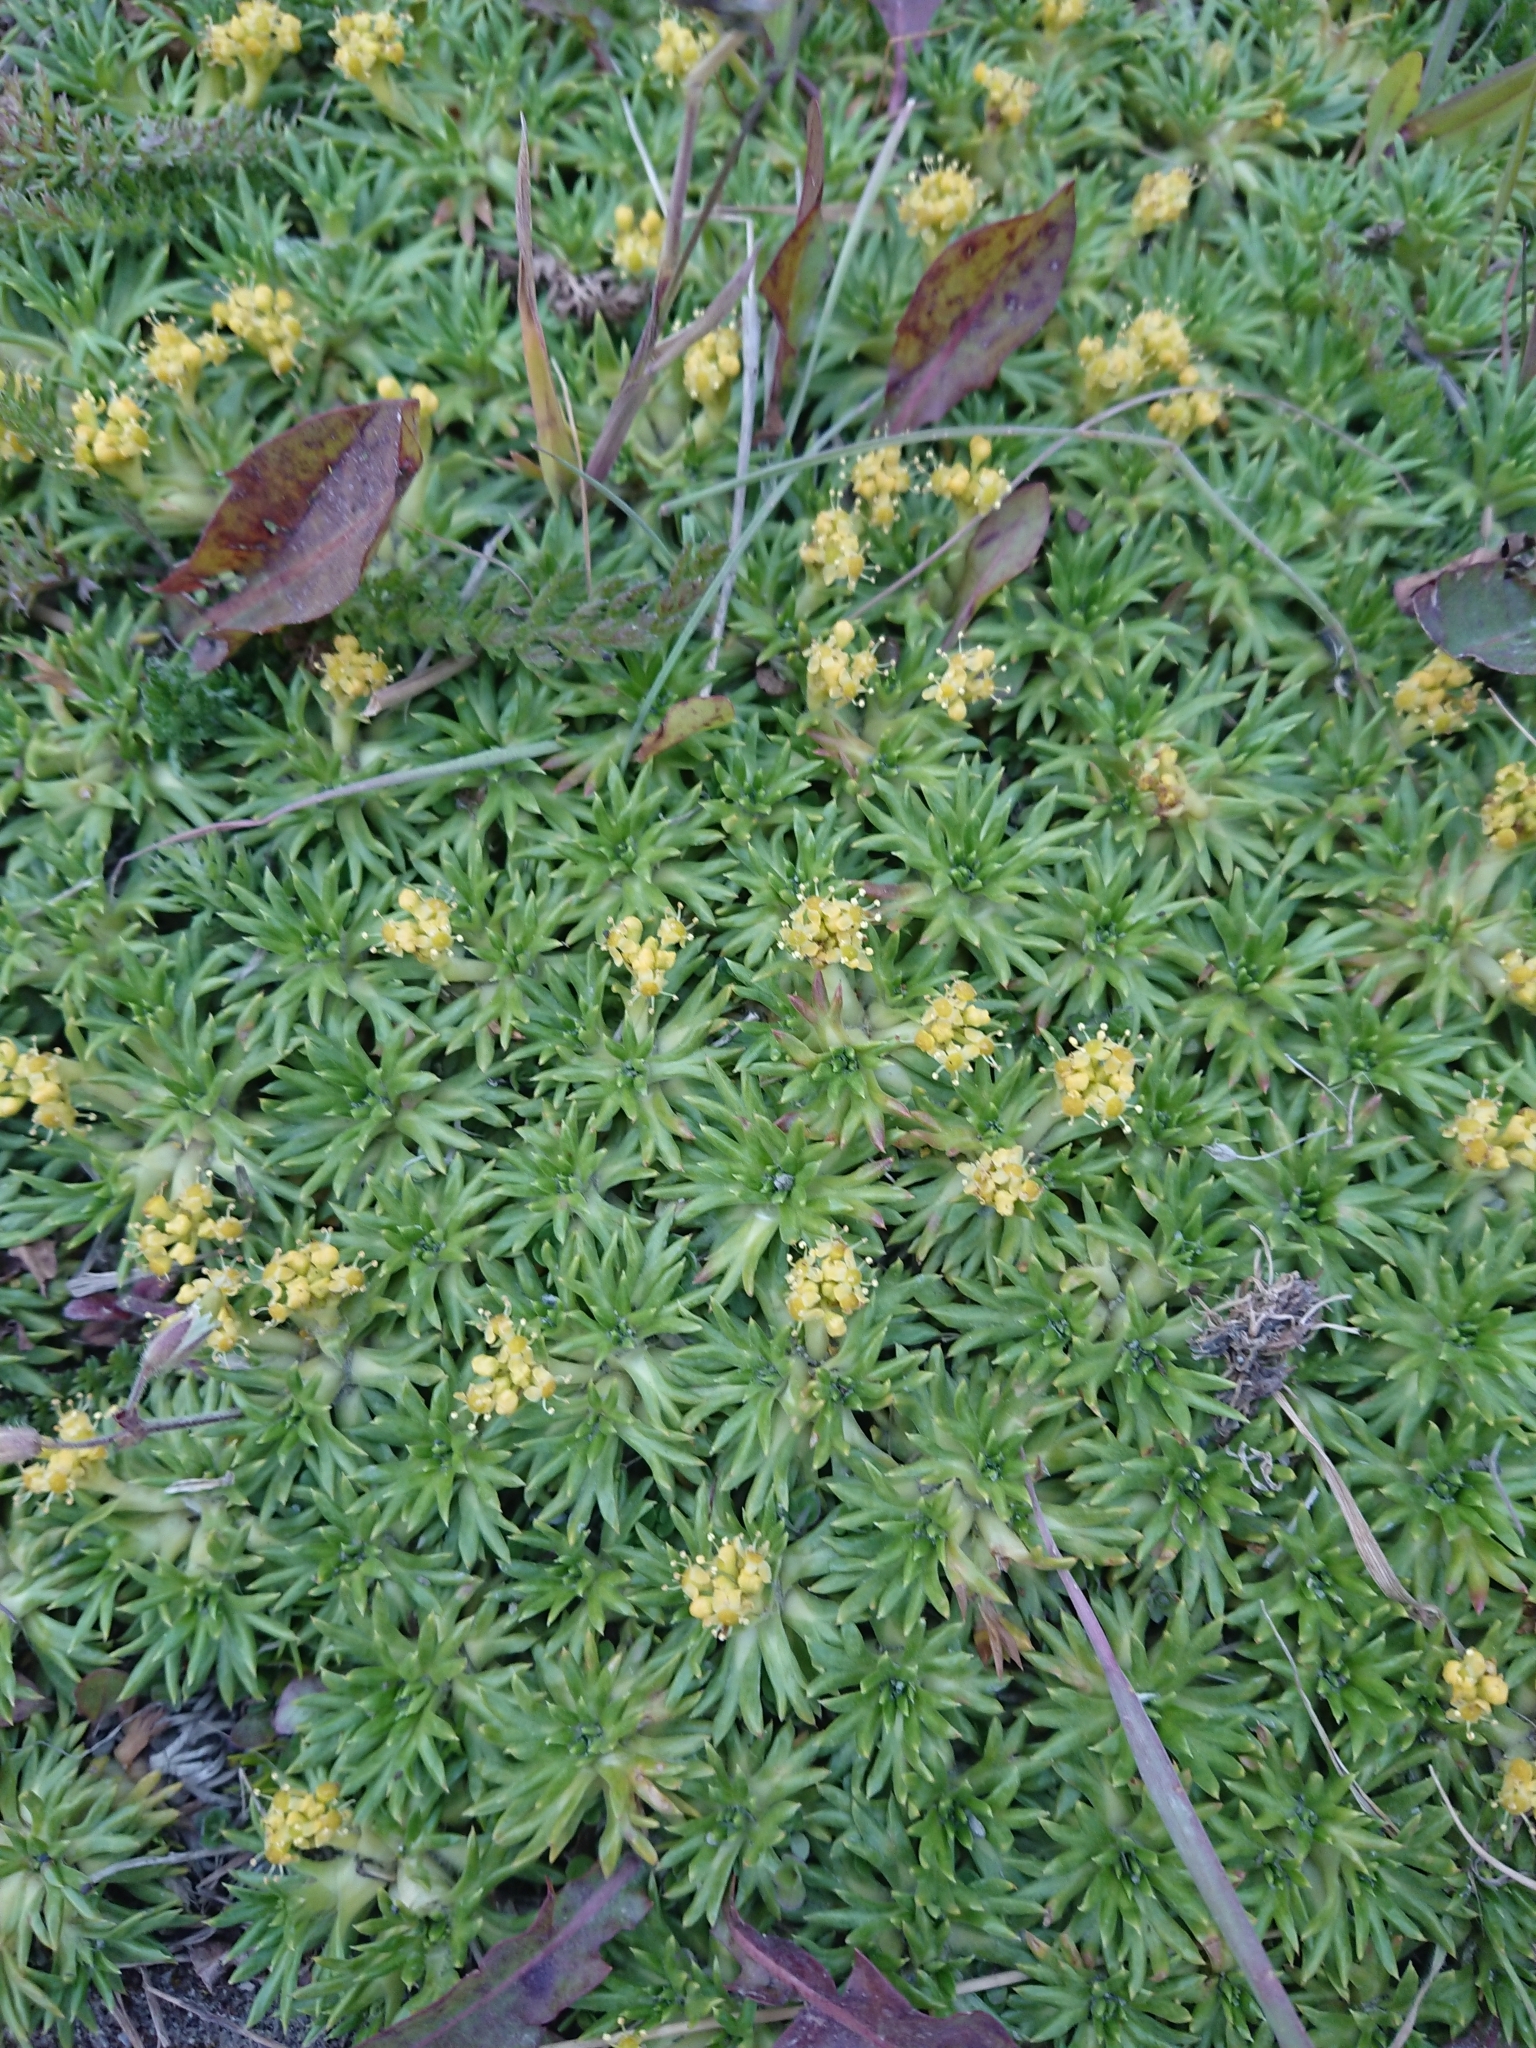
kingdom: Plantae
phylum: Tracheophyta
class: Magnoliopsida
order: Apiales
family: Apiaceae
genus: Azorella
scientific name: Azorella trifurcata
